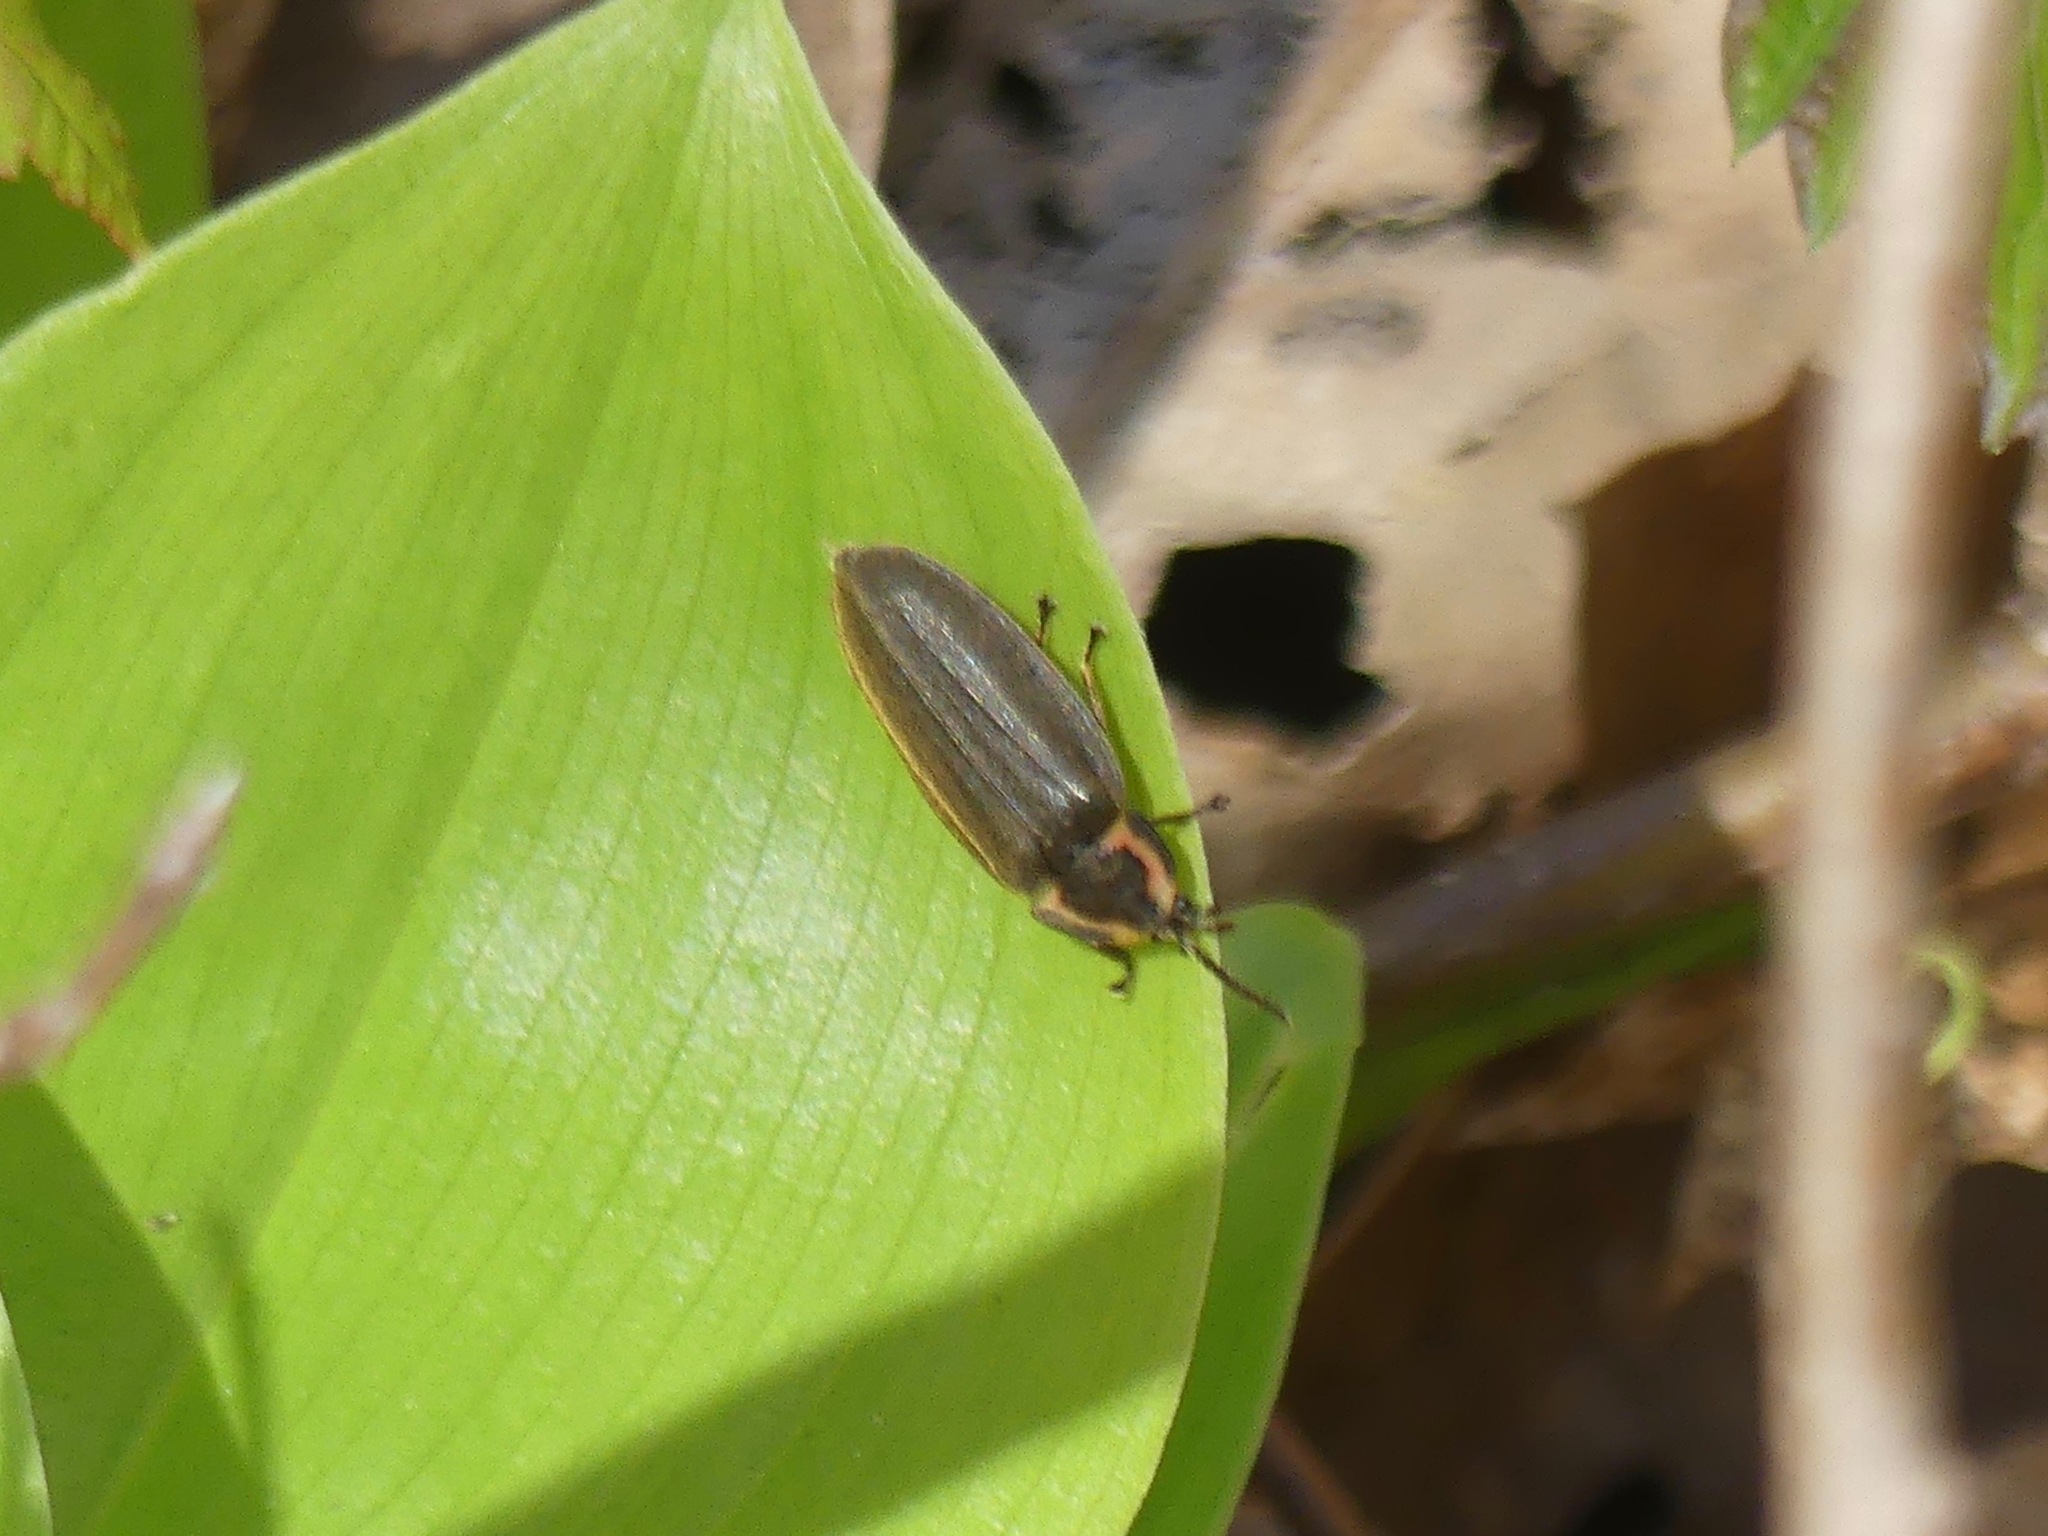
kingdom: Animalia
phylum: Arthropoda
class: Insecta
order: Coleoptera
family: Lampyridae
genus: Photinus
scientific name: Photinus corrusca
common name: Winter firefly
